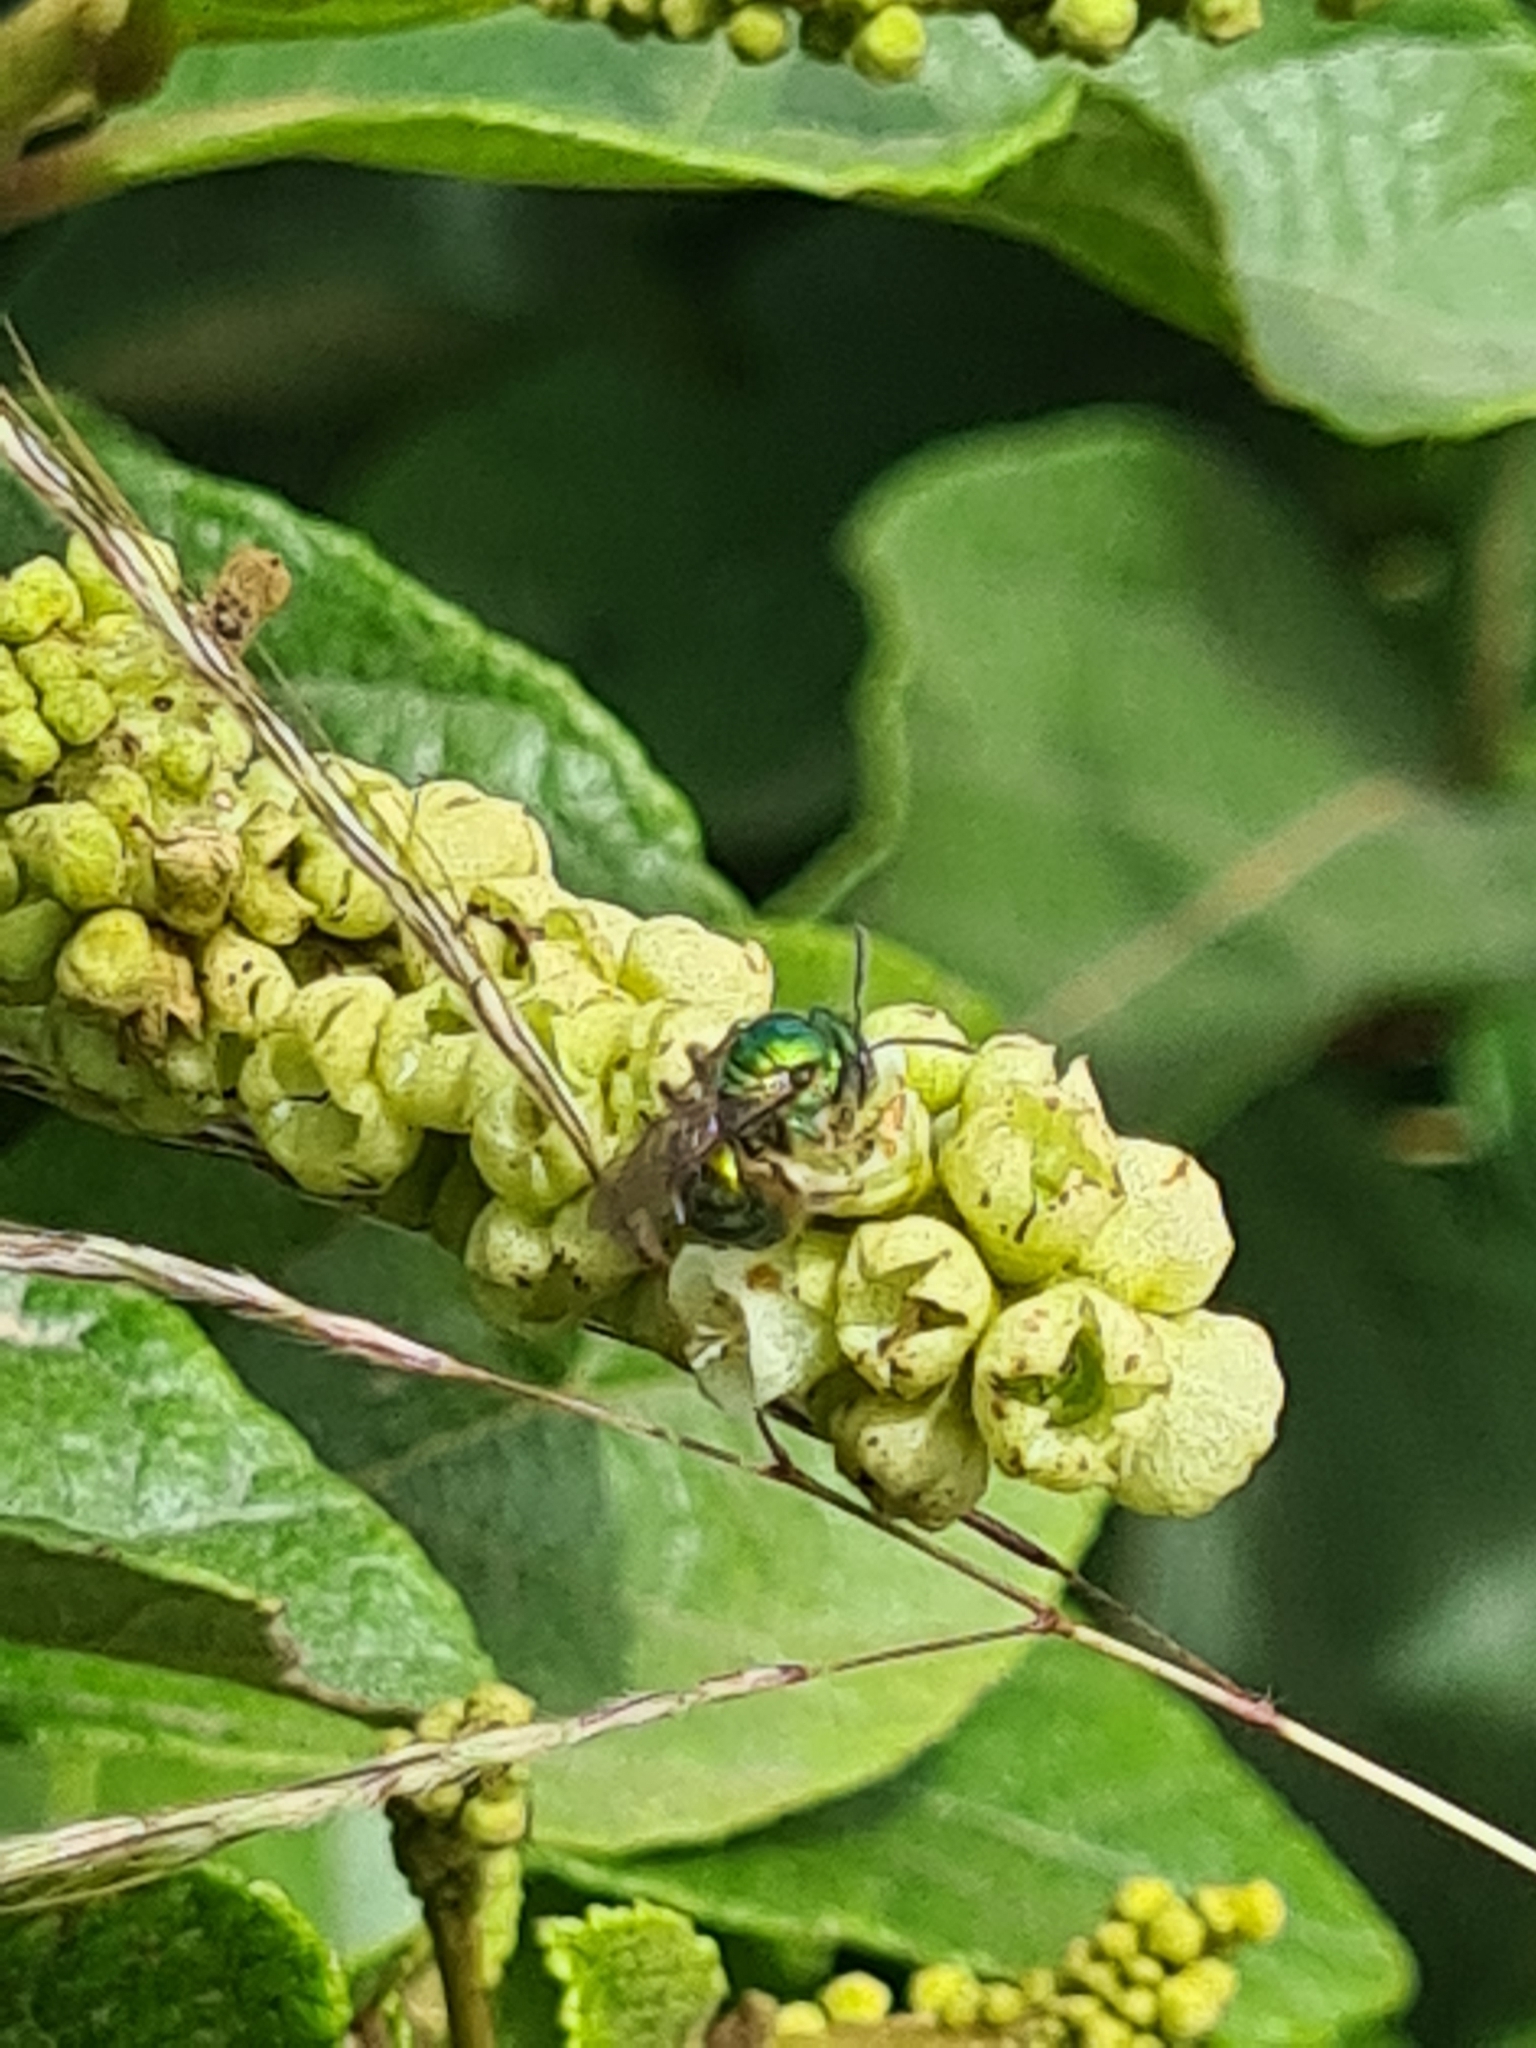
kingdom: Animalia
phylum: Arthropoda
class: Insecta
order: Hymenoptera
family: Halictidae
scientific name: Halictidae
